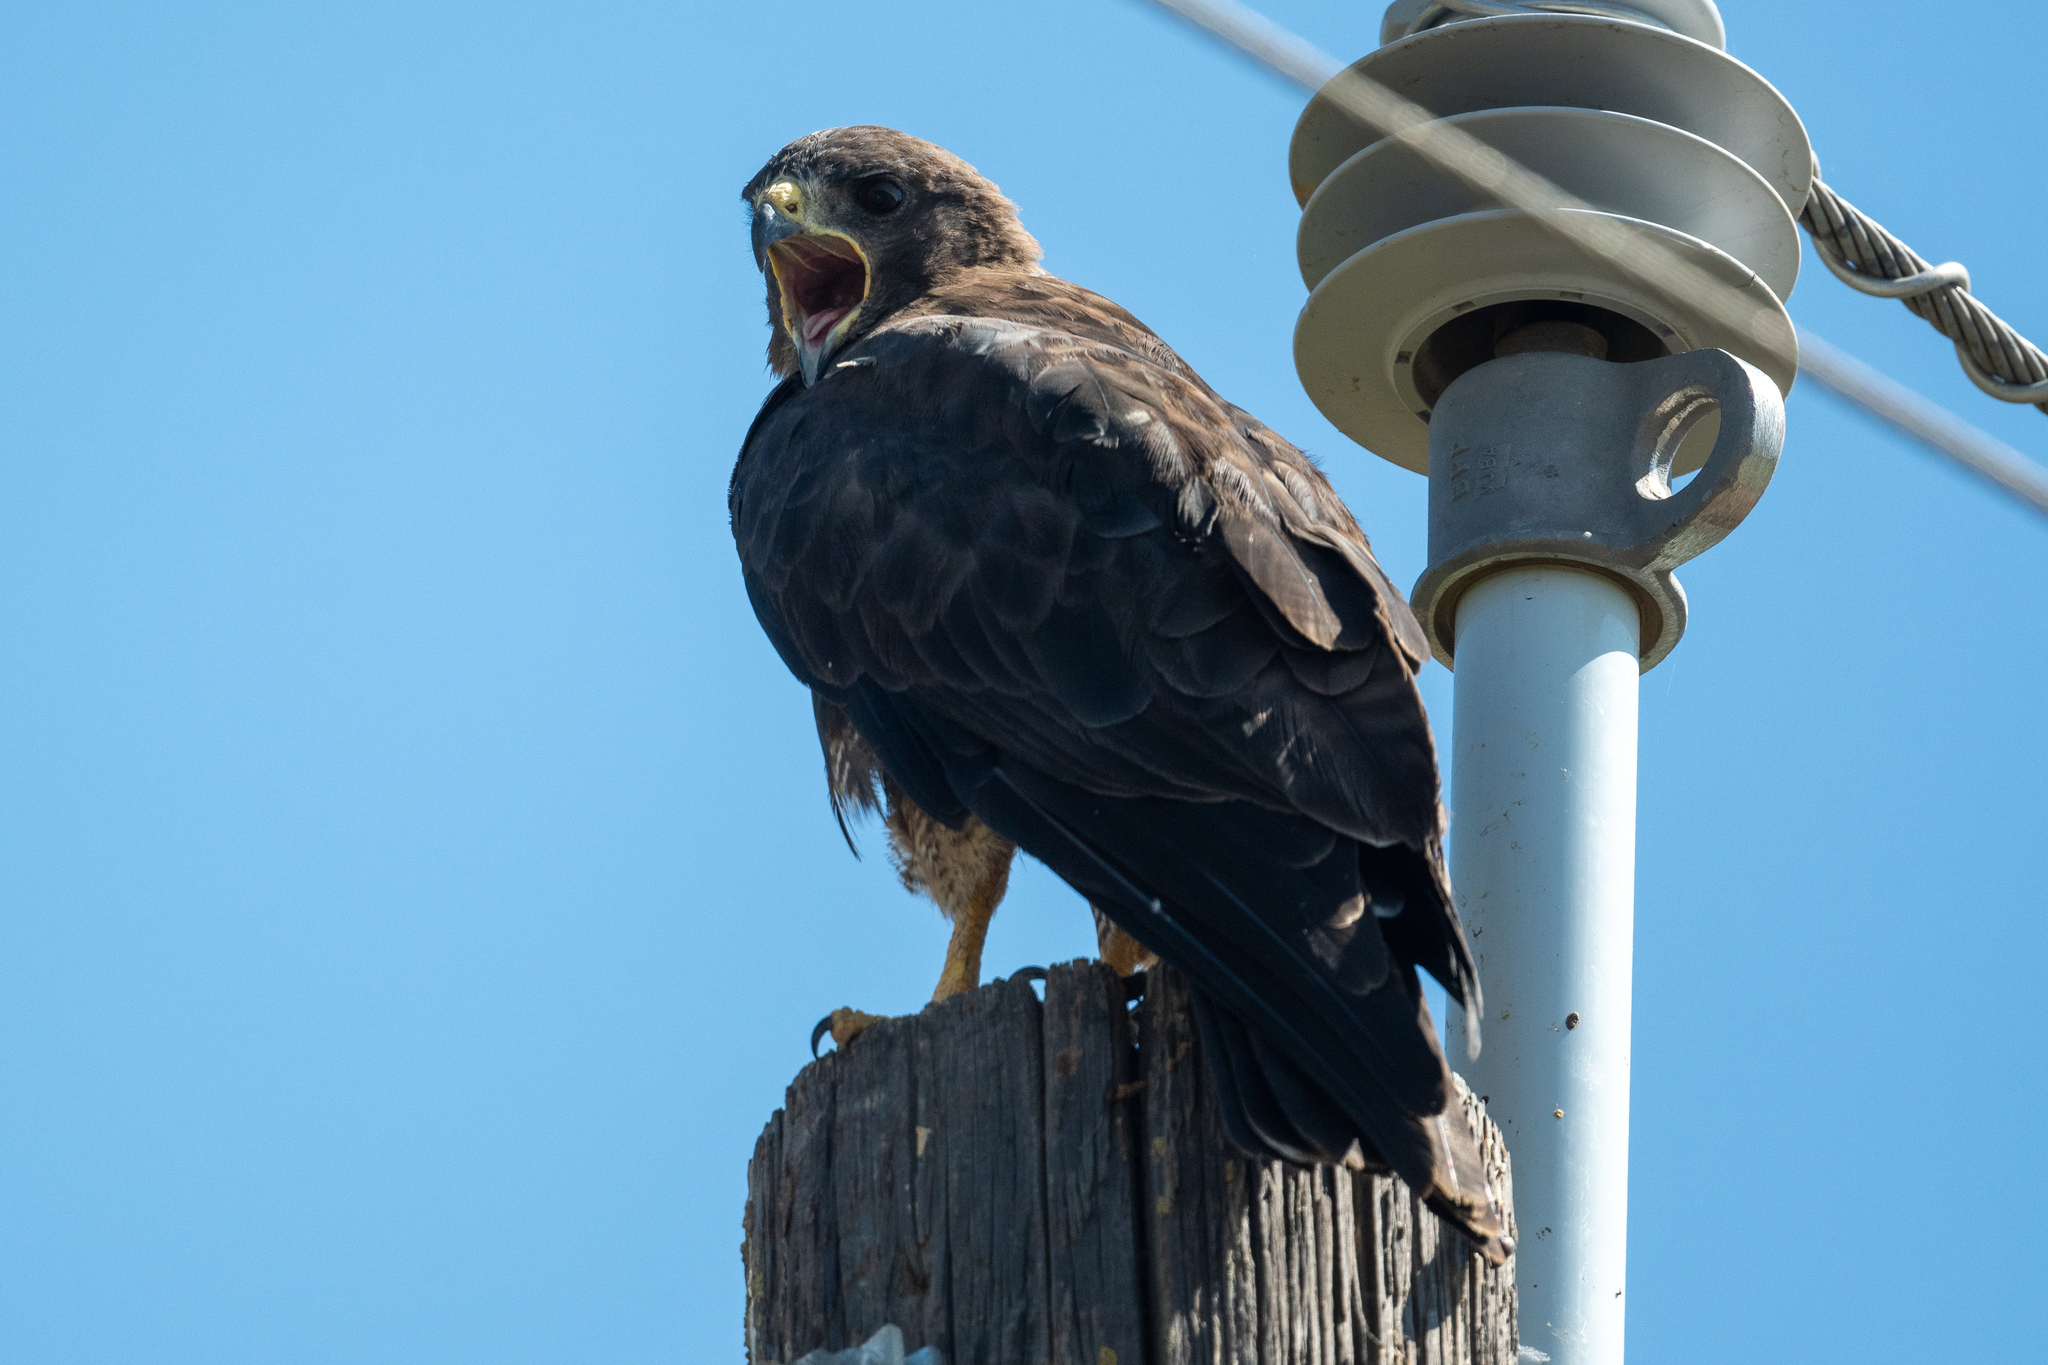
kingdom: Animalia
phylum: Chordata
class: Aves
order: Accipitriformes
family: Accipitridae
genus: Buteo
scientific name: Buteo swainsoni
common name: Swainson's hawk
